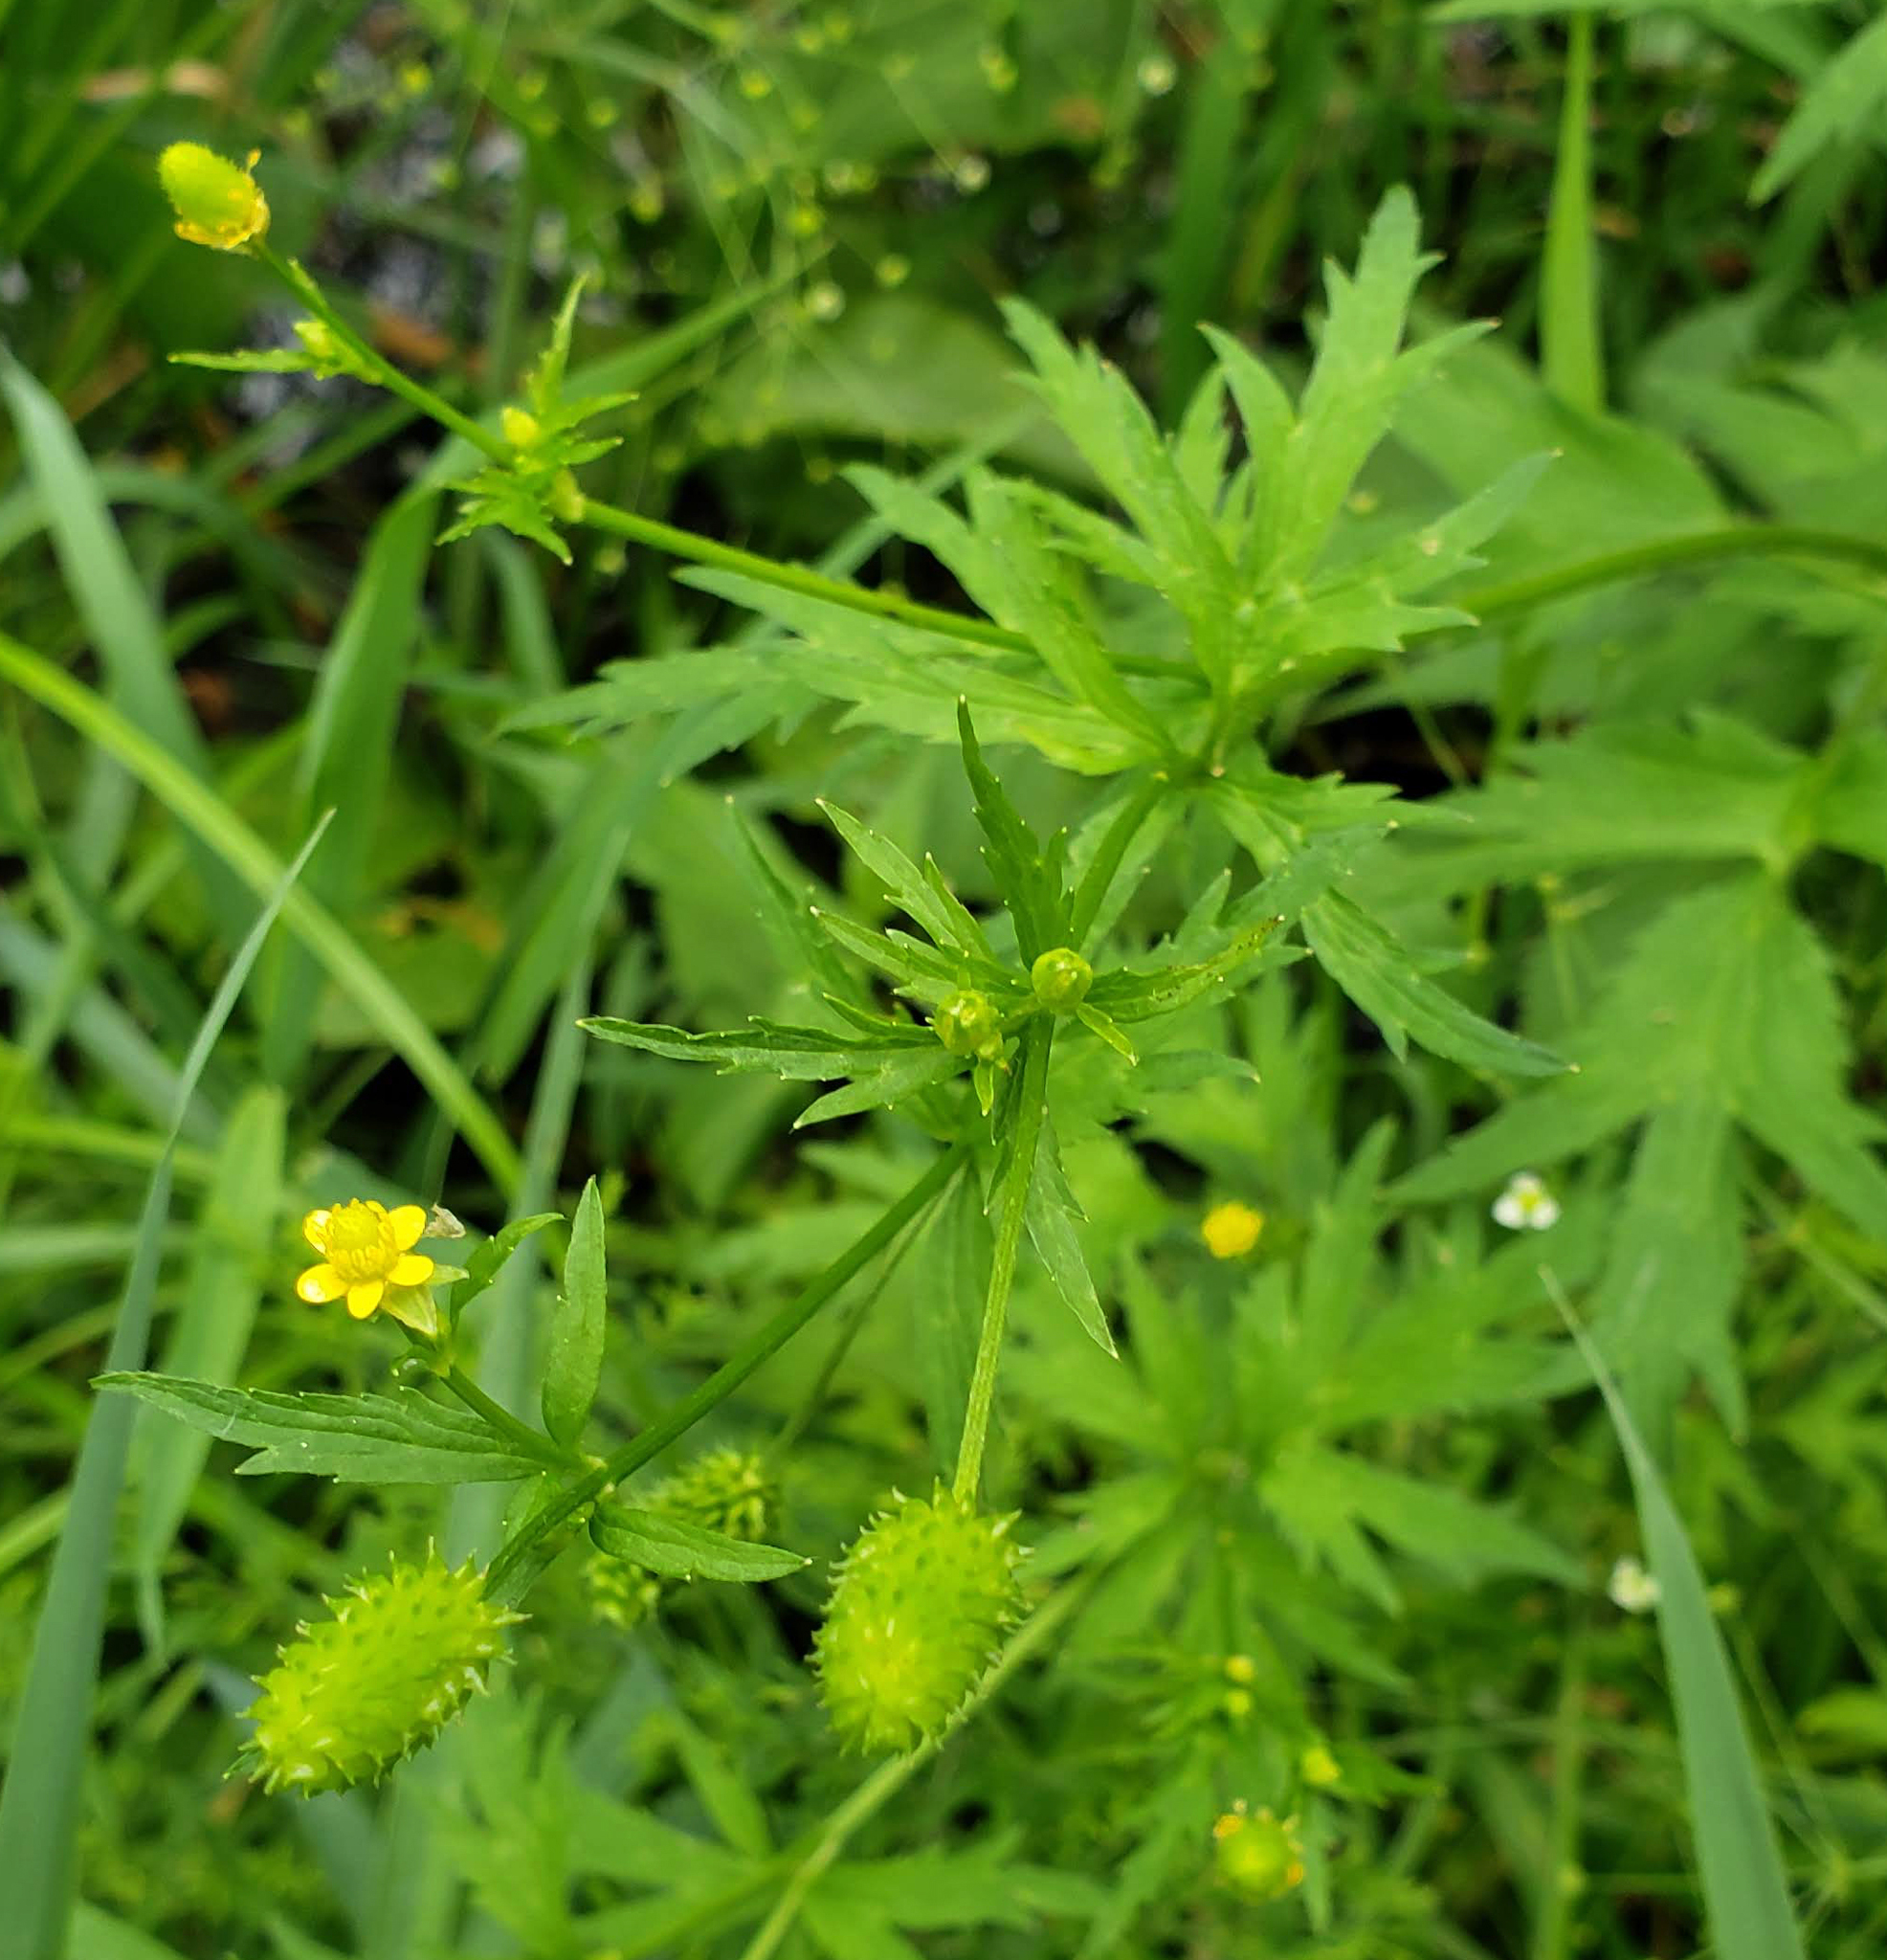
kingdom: Plantae
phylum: Tracheophyta
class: Magnoliopsida
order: Ranunculales
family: Ranunculaceae
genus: Ranunculus
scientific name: Ranunculus pensylvanicus
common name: Bristly buttercup
